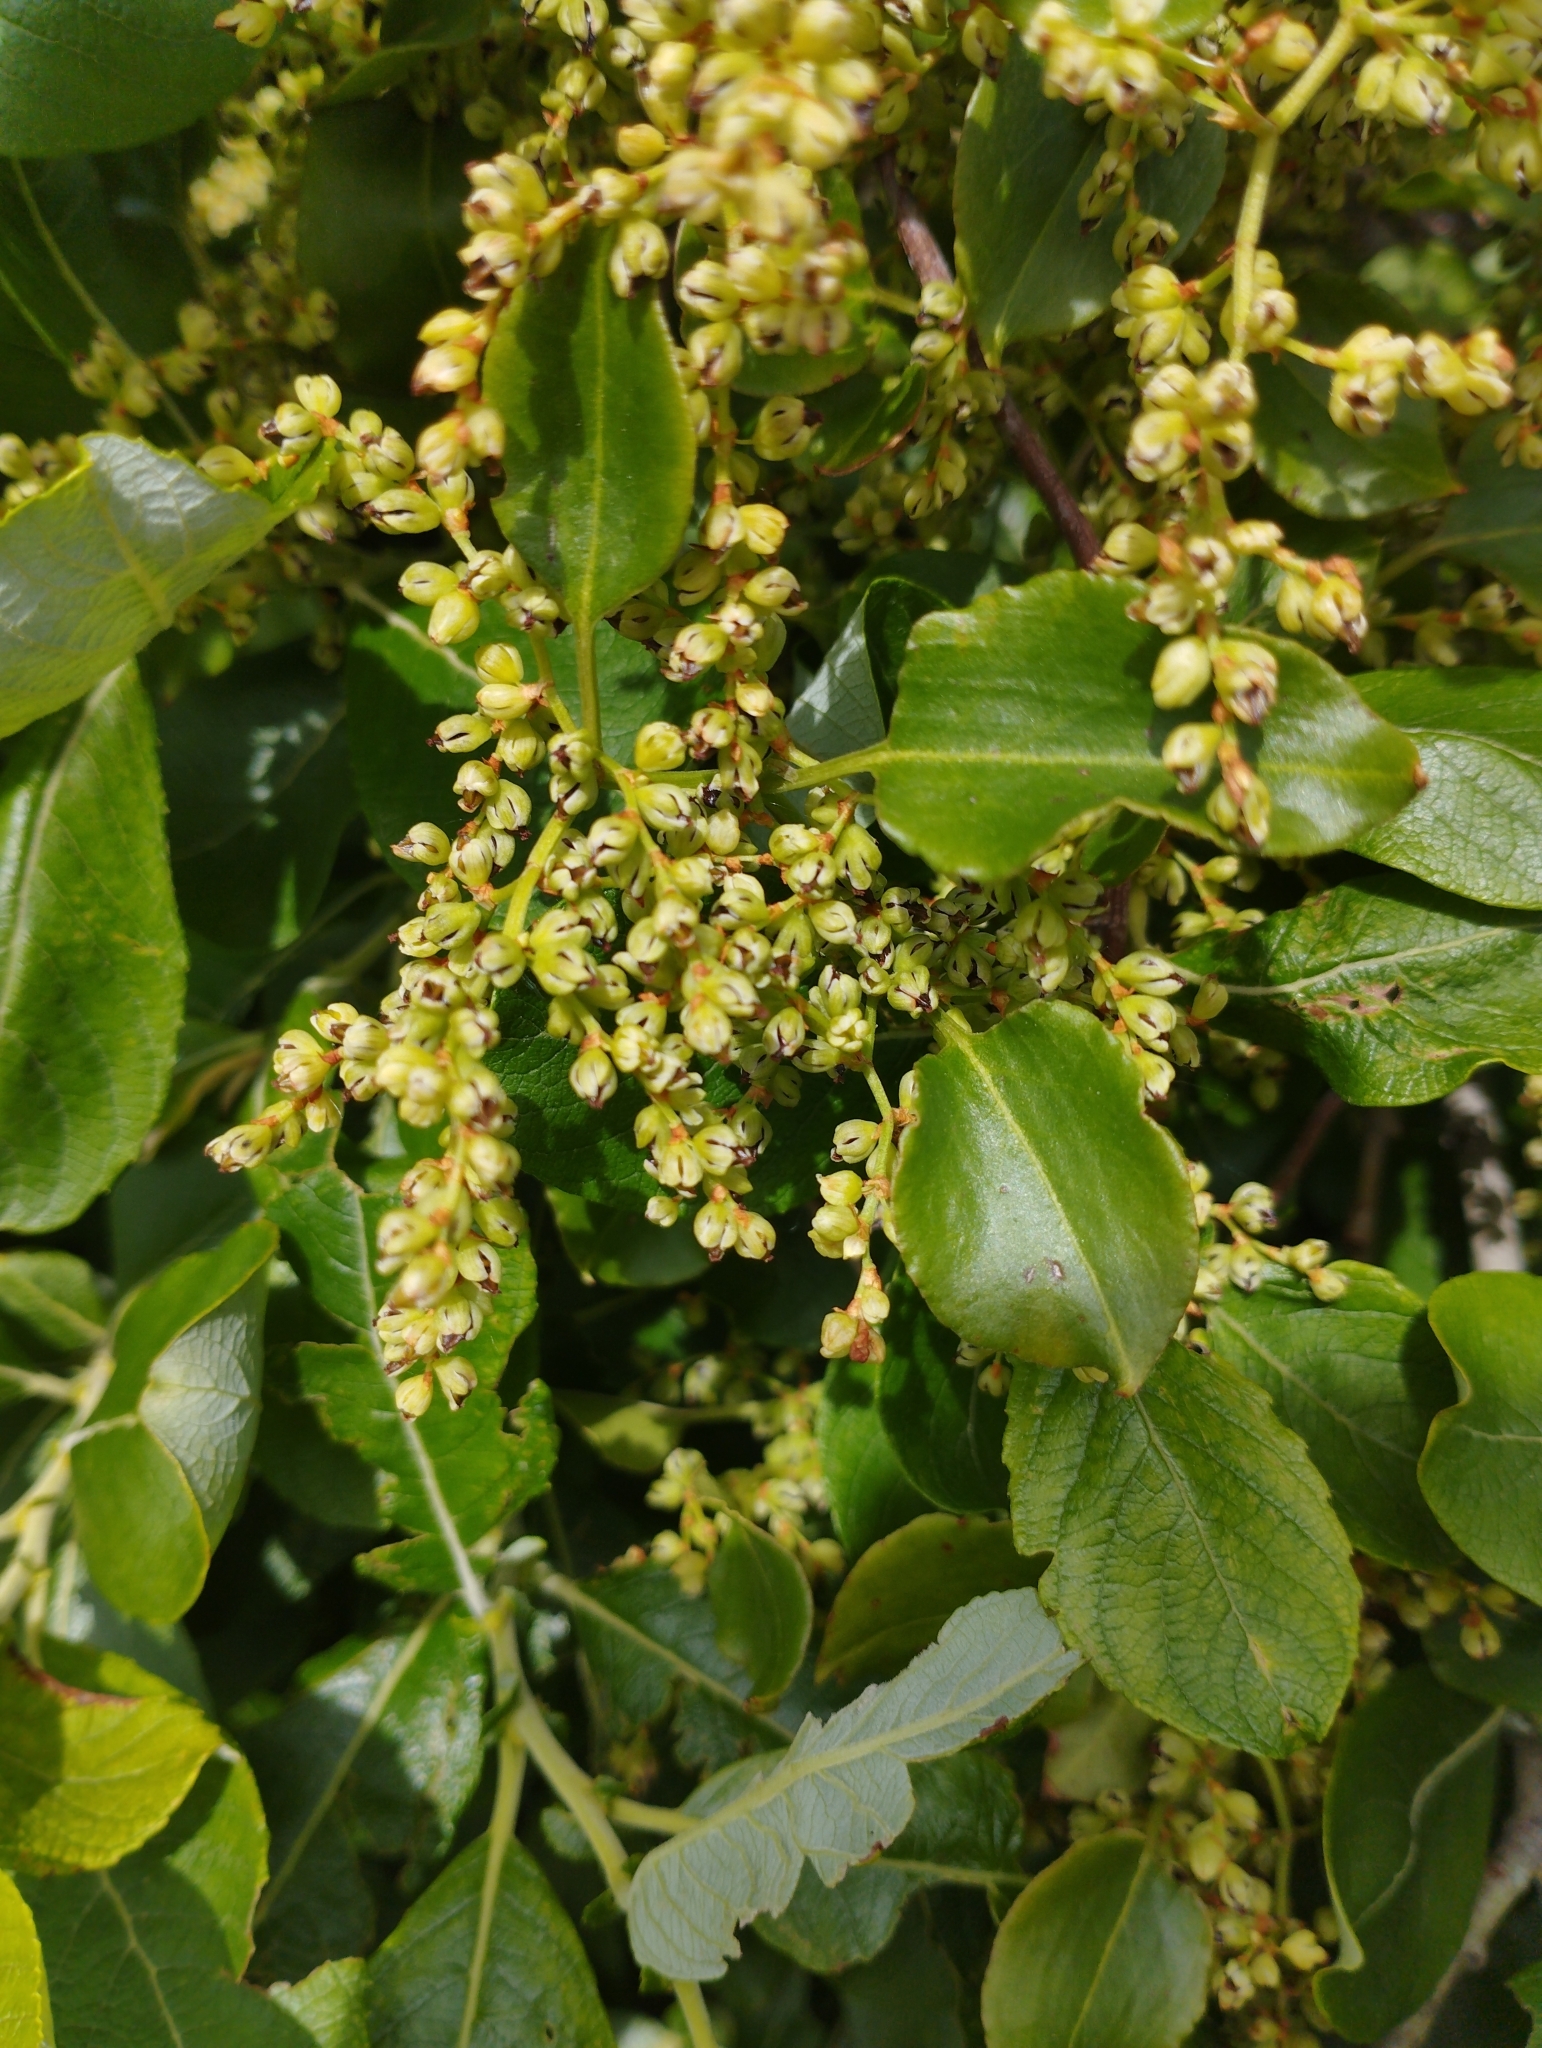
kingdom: Plantae
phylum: Tracheophyta
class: Magnoliopsida
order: Caryophyllales
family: Polygonaceae
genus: Muehlenbeckia
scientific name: Muehlenbeckia australis
